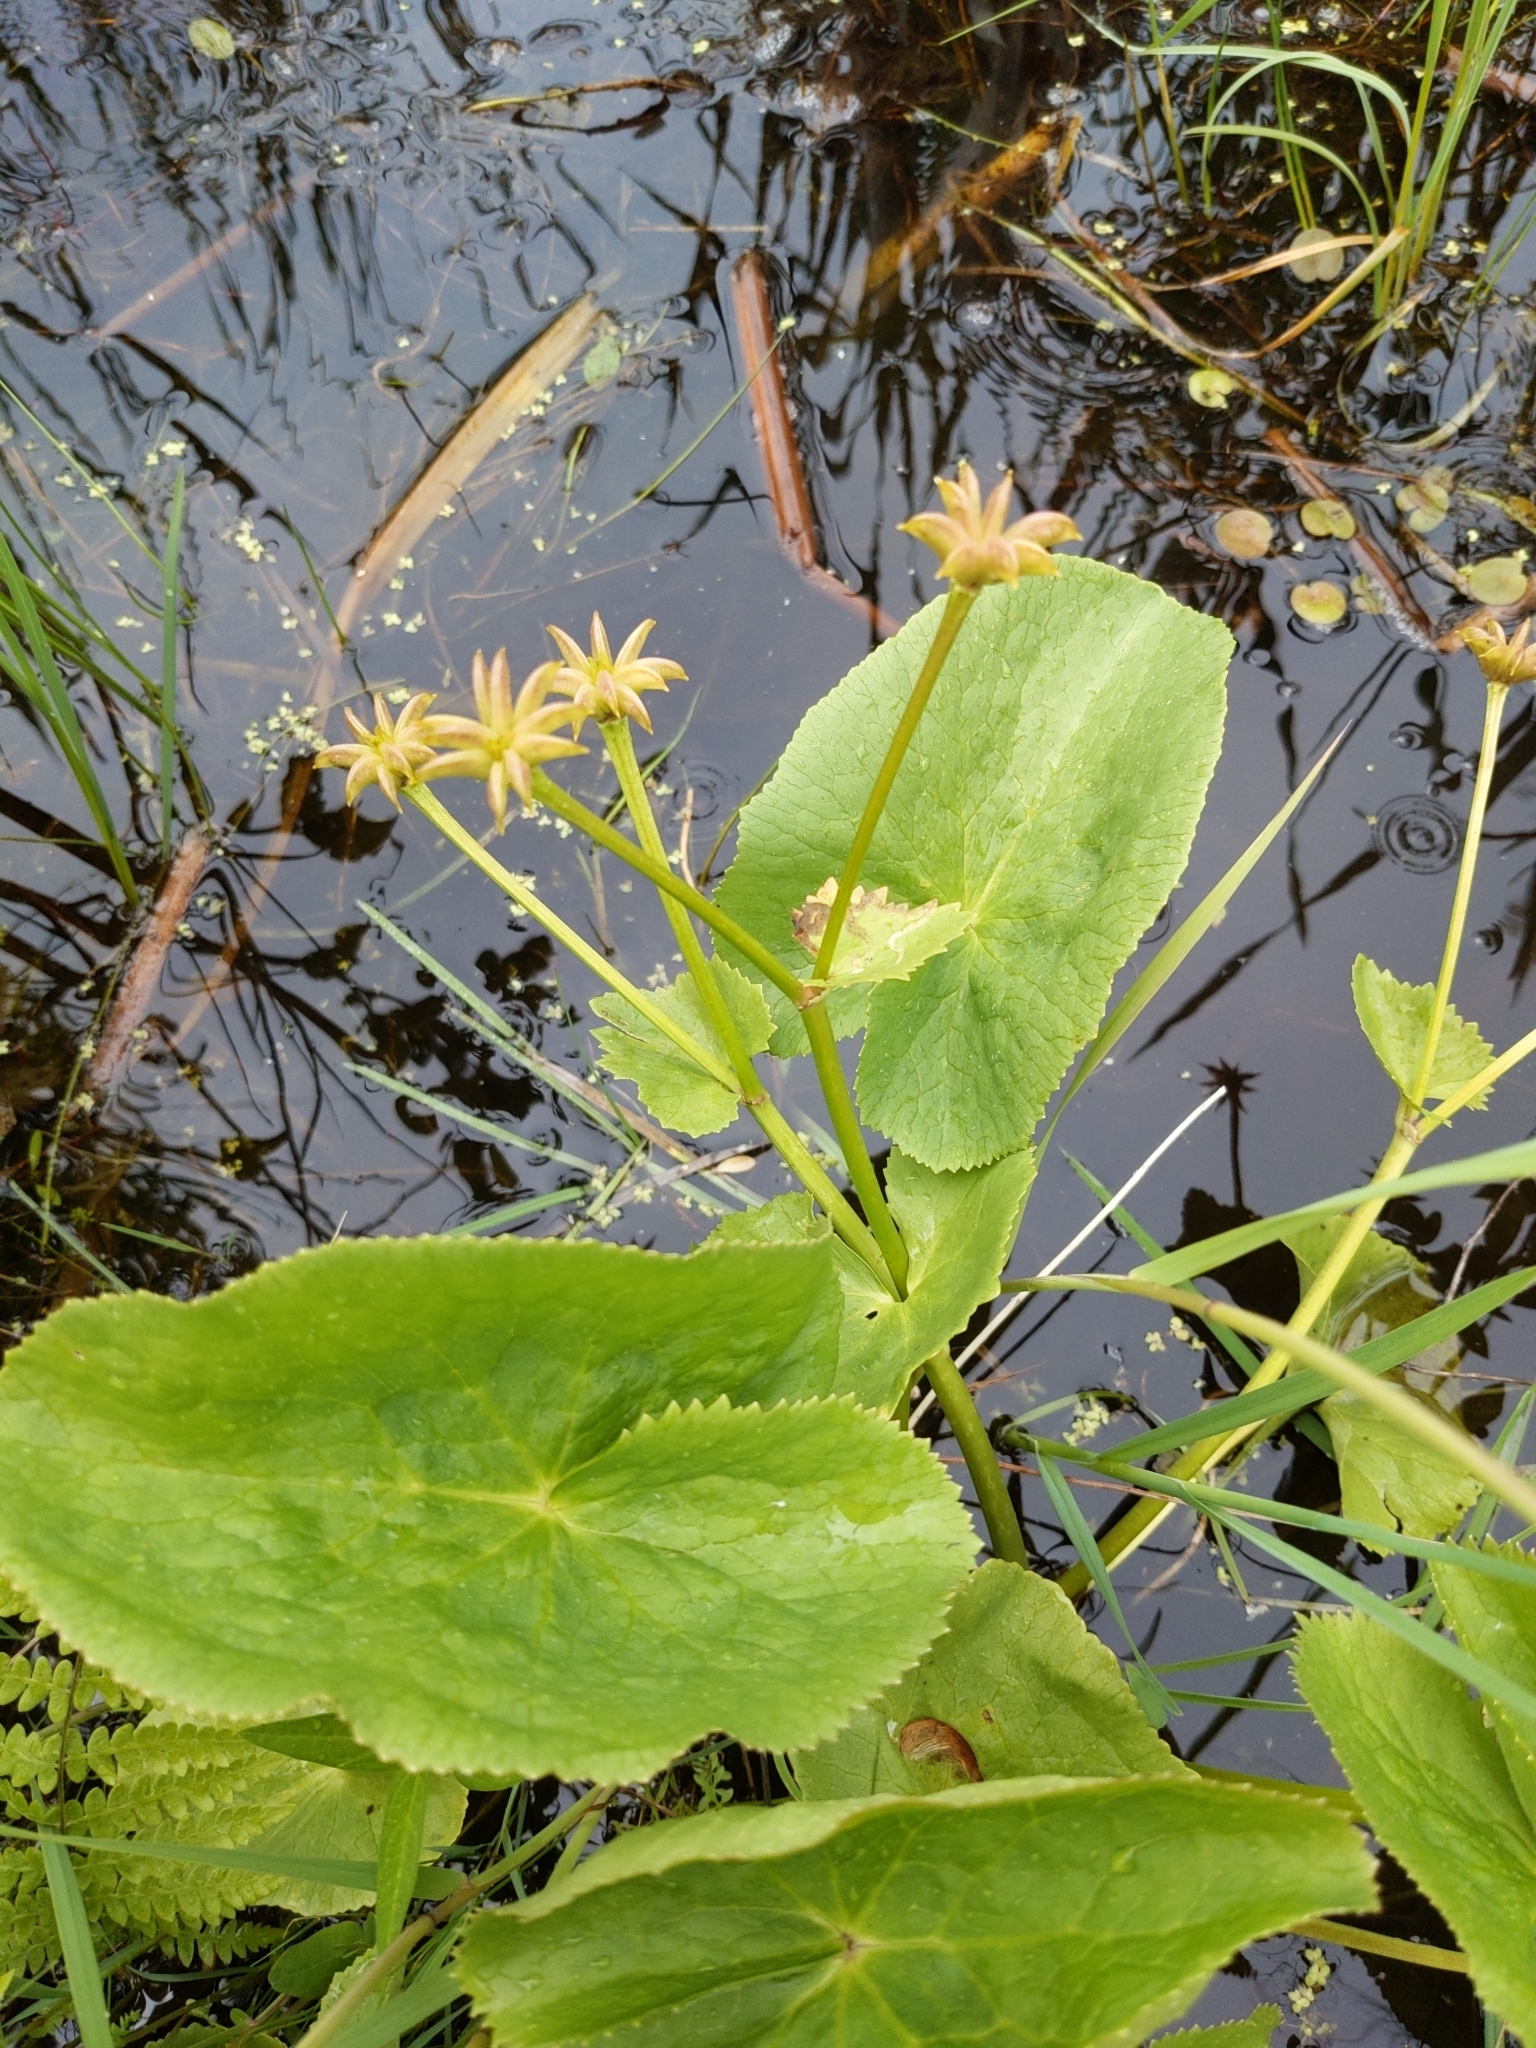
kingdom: Plantae
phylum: Tracheophyta
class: Magnoliopsida
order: Ranunculales
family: Ranunculaceae
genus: Caltha
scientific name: Caltha palustris
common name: Marsh marigold
